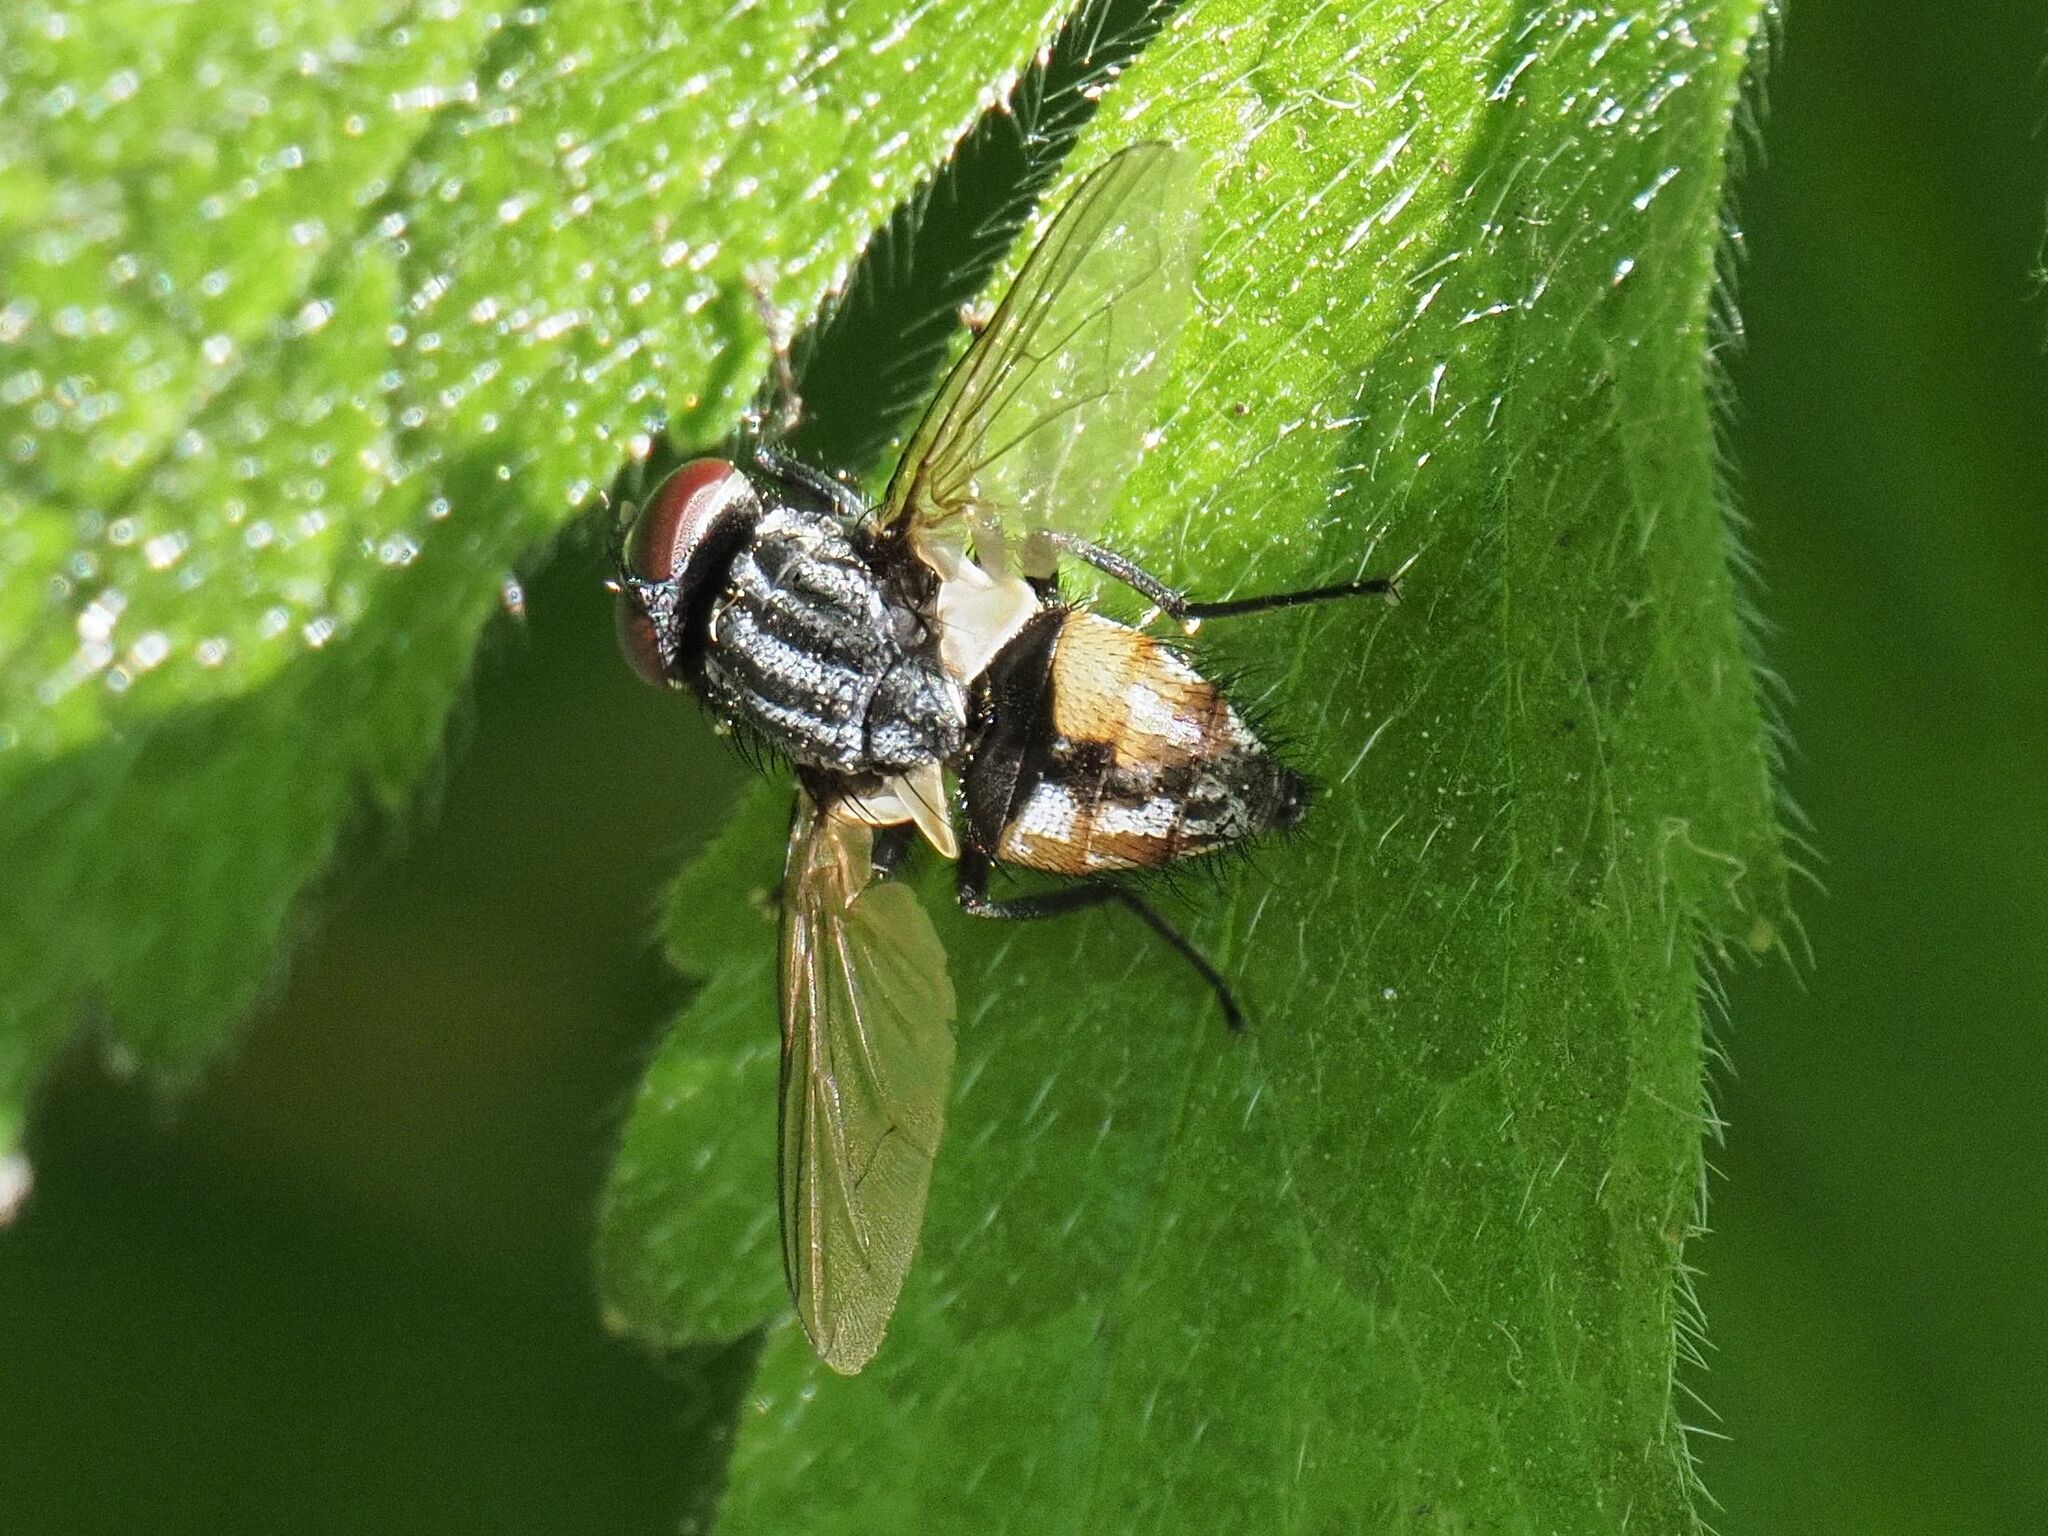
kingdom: Animalia
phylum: Arthropoda
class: Insecta
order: Diptera
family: Muscidae
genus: Musca
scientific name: Musca autumnalis
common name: Face fly
